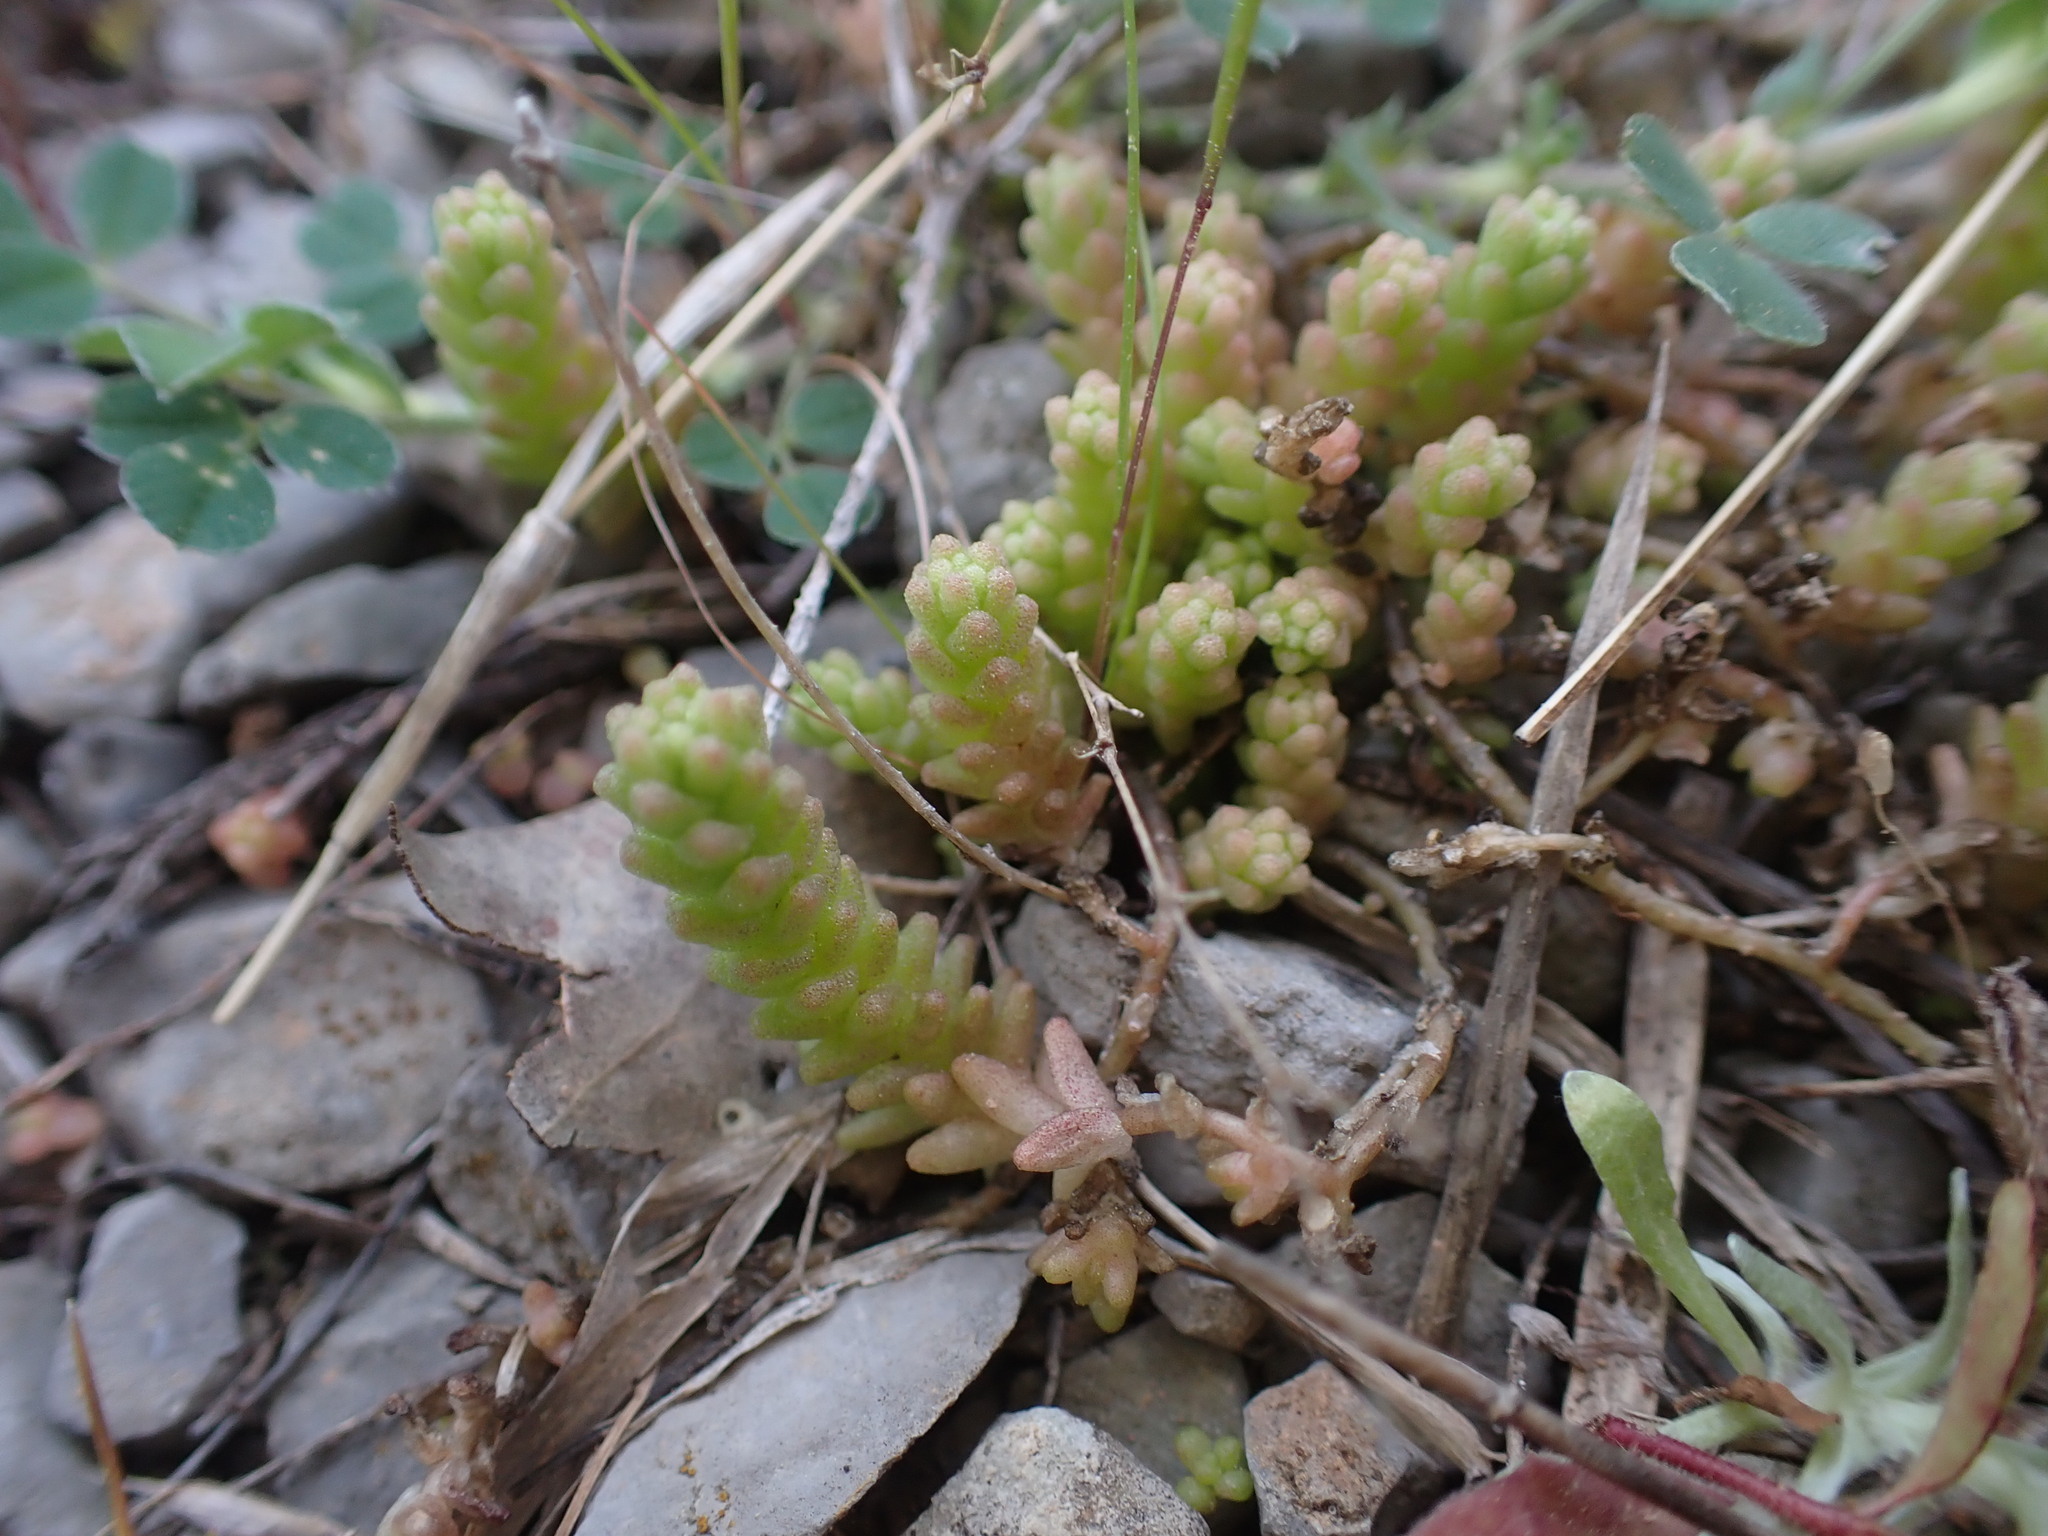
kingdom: Plantae
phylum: Tracheophyta
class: Magnoliopsida
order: Saxifragales
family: Crassulaceae
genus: Sedum
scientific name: Sedum acre
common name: Biting stonecrop
